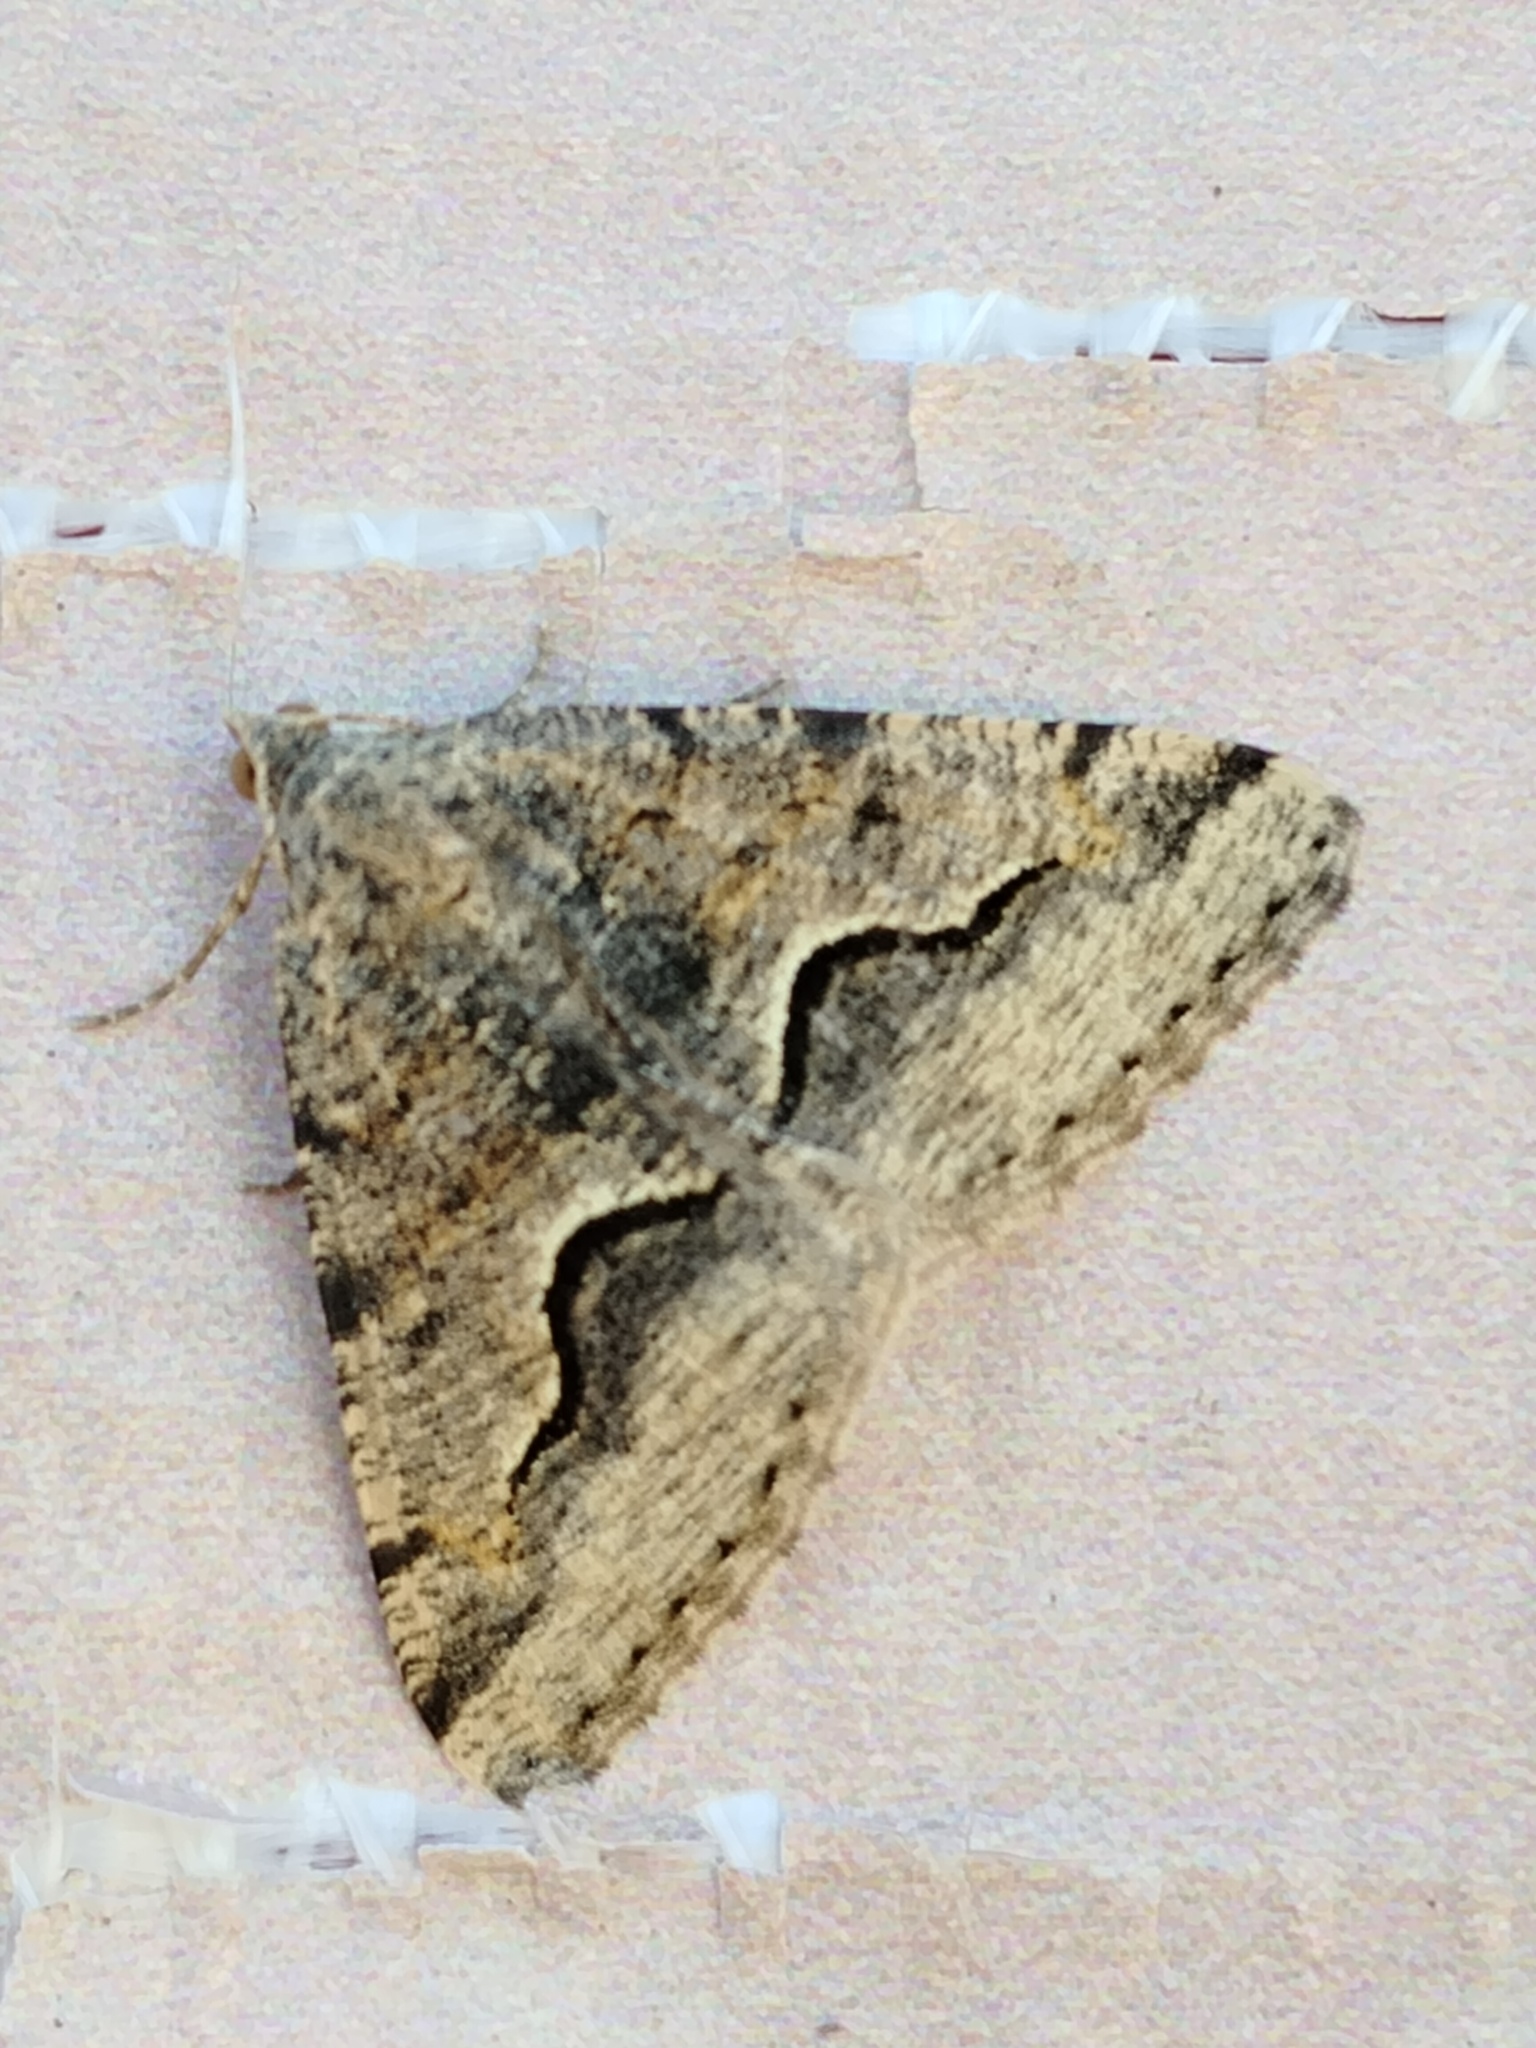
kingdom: Animalia
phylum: Arthropoda
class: Insecta
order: Lepidoptera
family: Geometridae
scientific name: Geometridae
